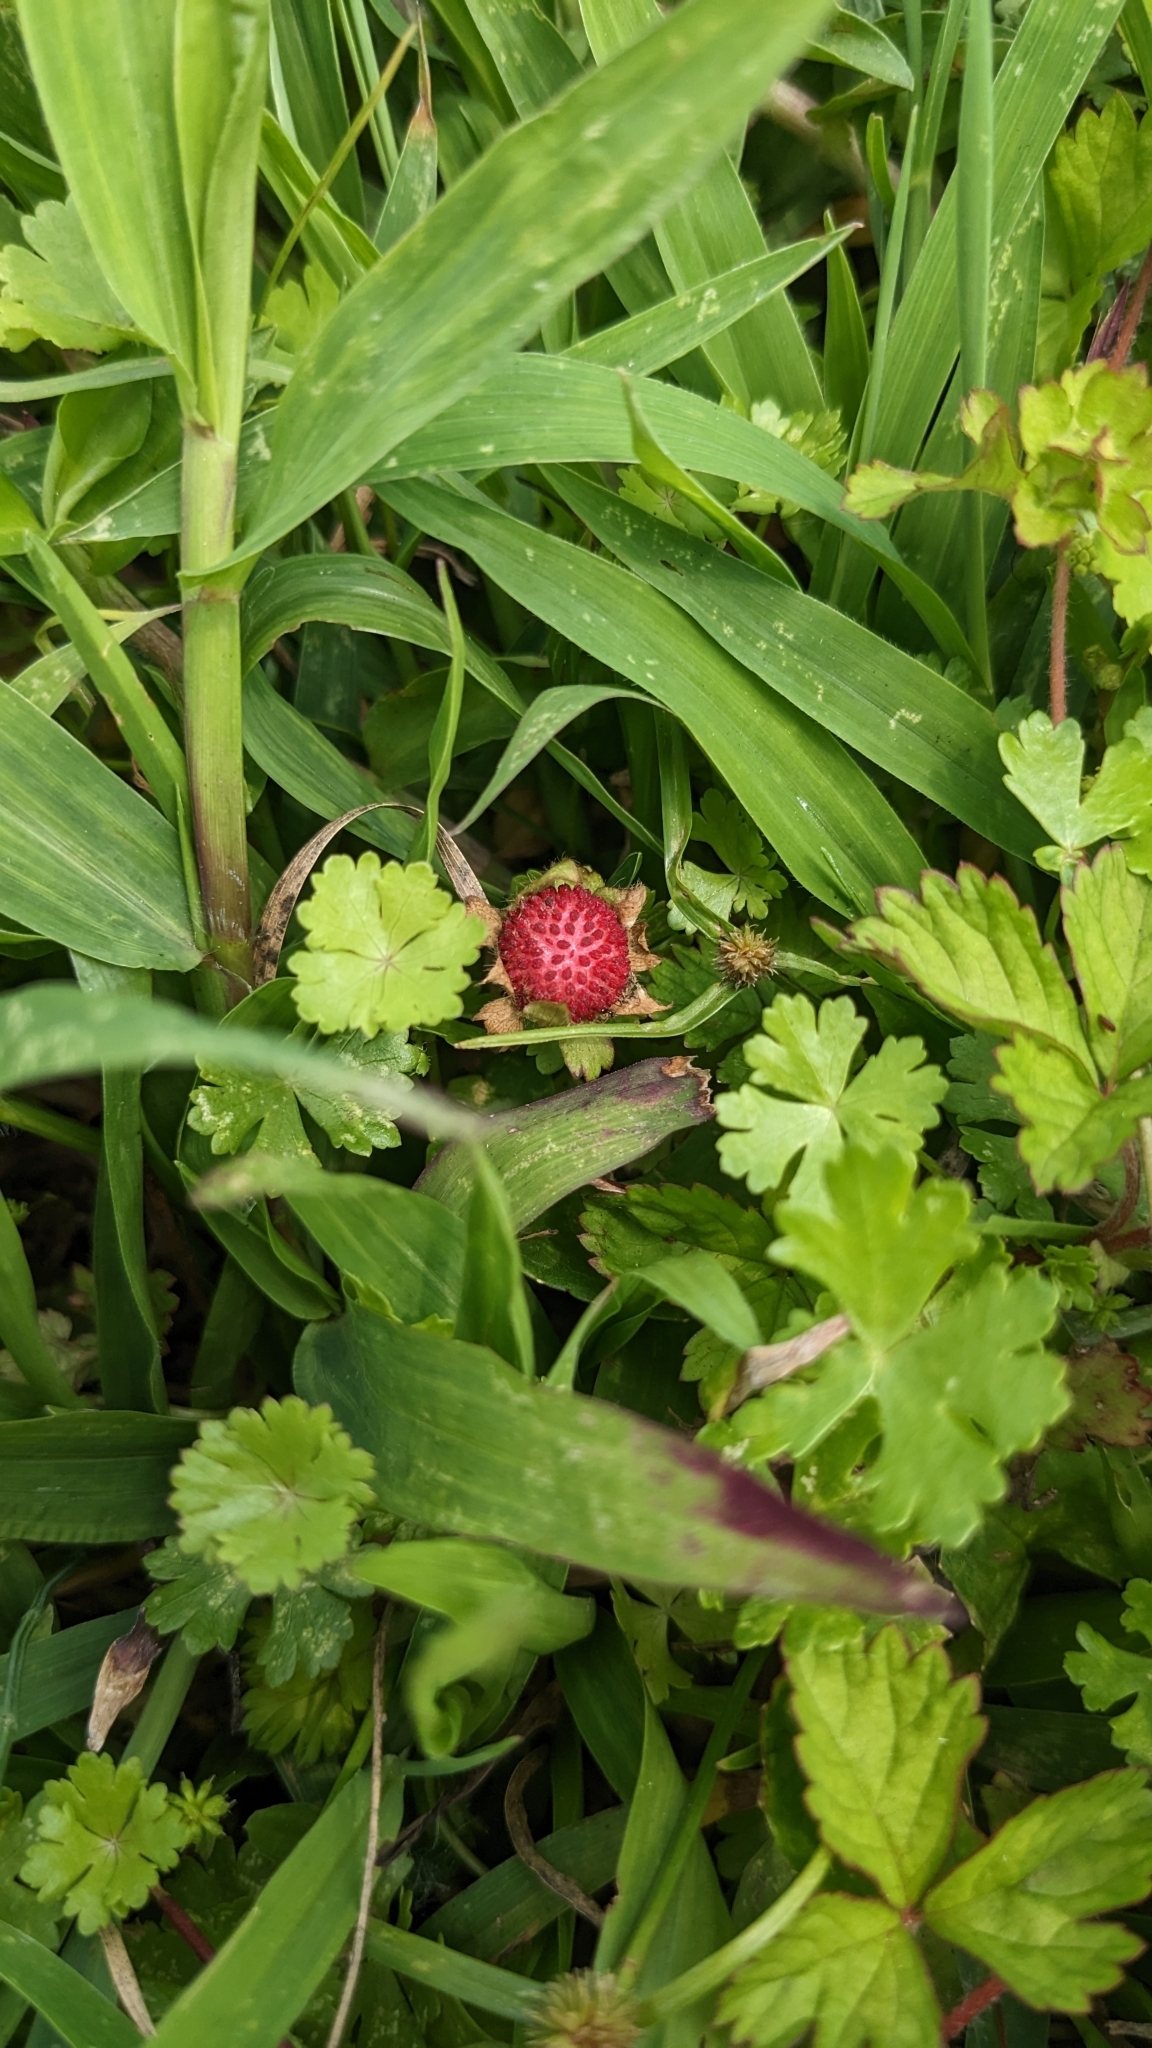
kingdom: Plantae
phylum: Tracheophyta
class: Magnoliopsida
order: Rosales
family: Rosaceae
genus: Potentilla
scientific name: Potentilla wallichiana
